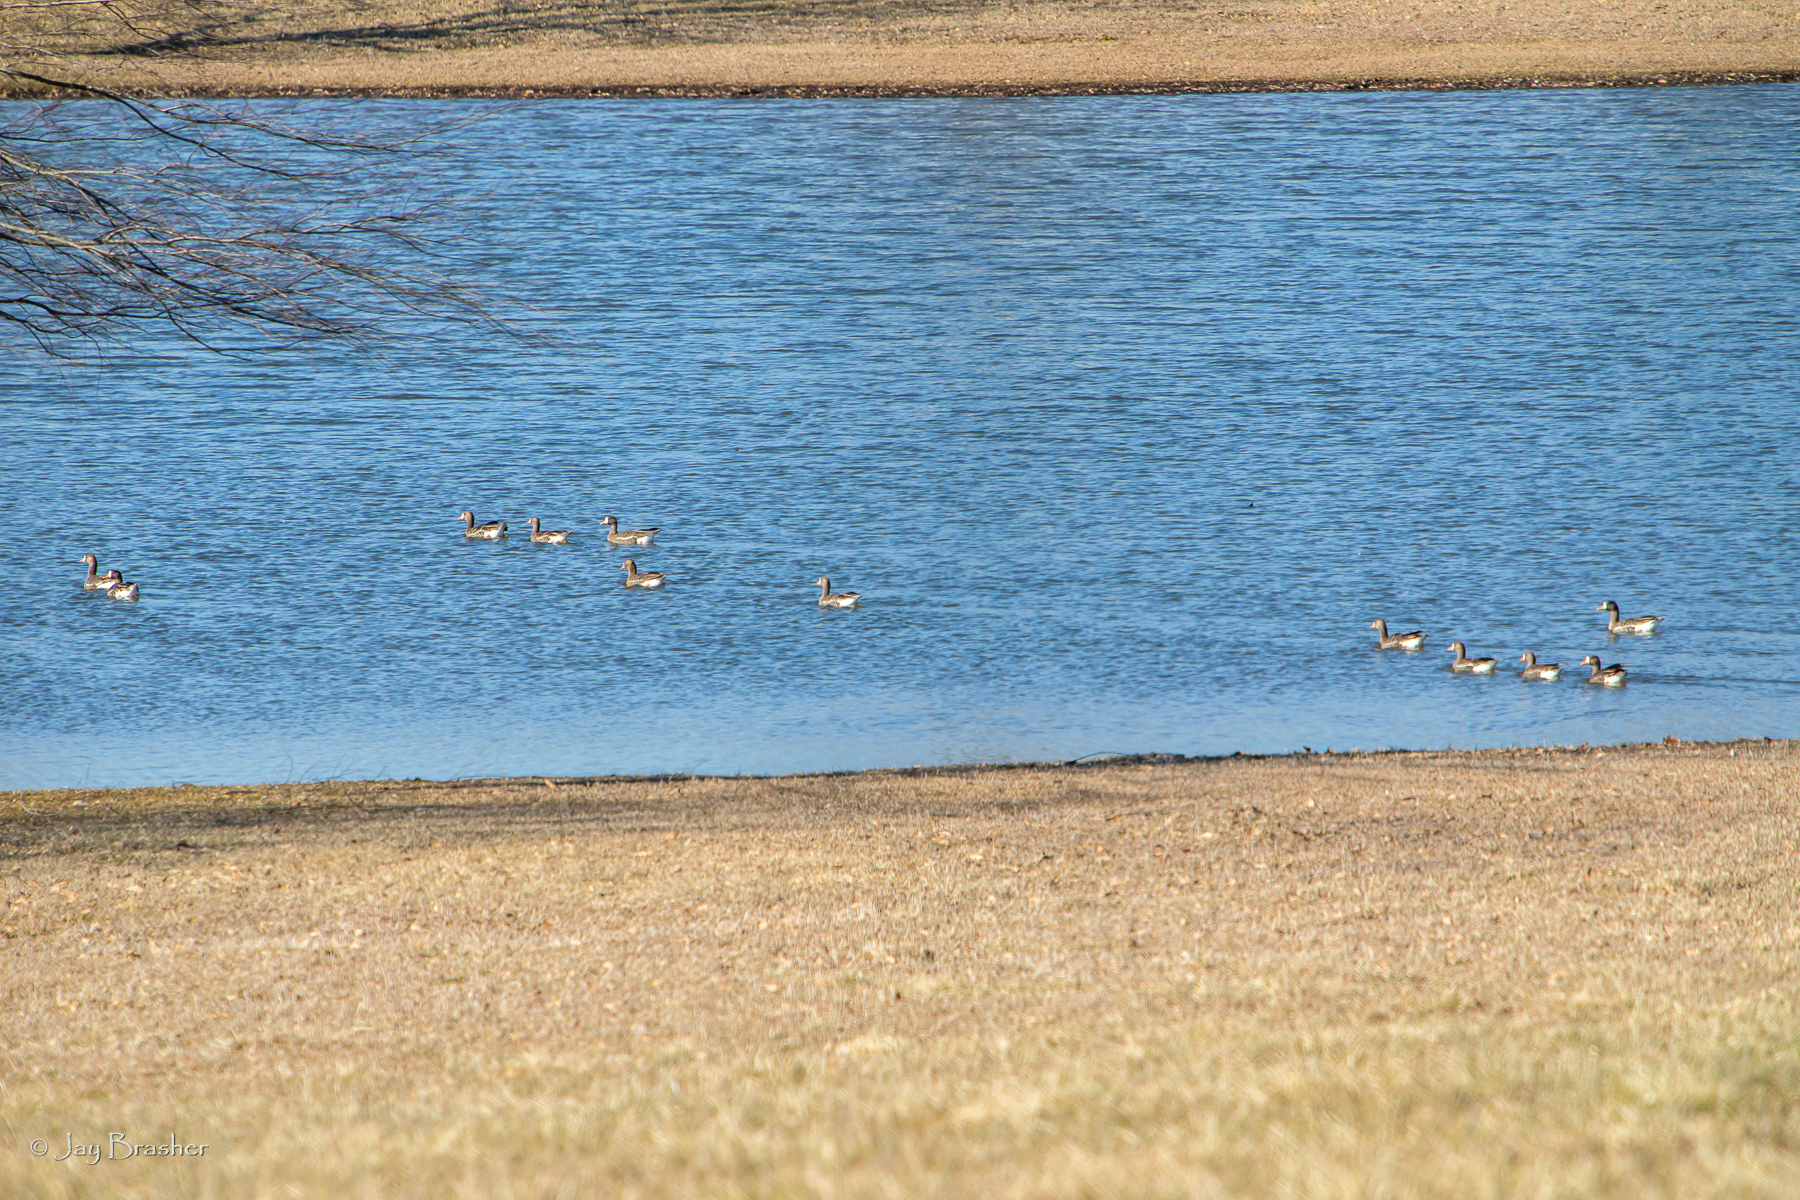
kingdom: Animalia
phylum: Chordata
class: Aves
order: Anseriformes
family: Anatidae
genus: Anser
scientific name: Anser albifrons
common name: Greater white-fronted goose
